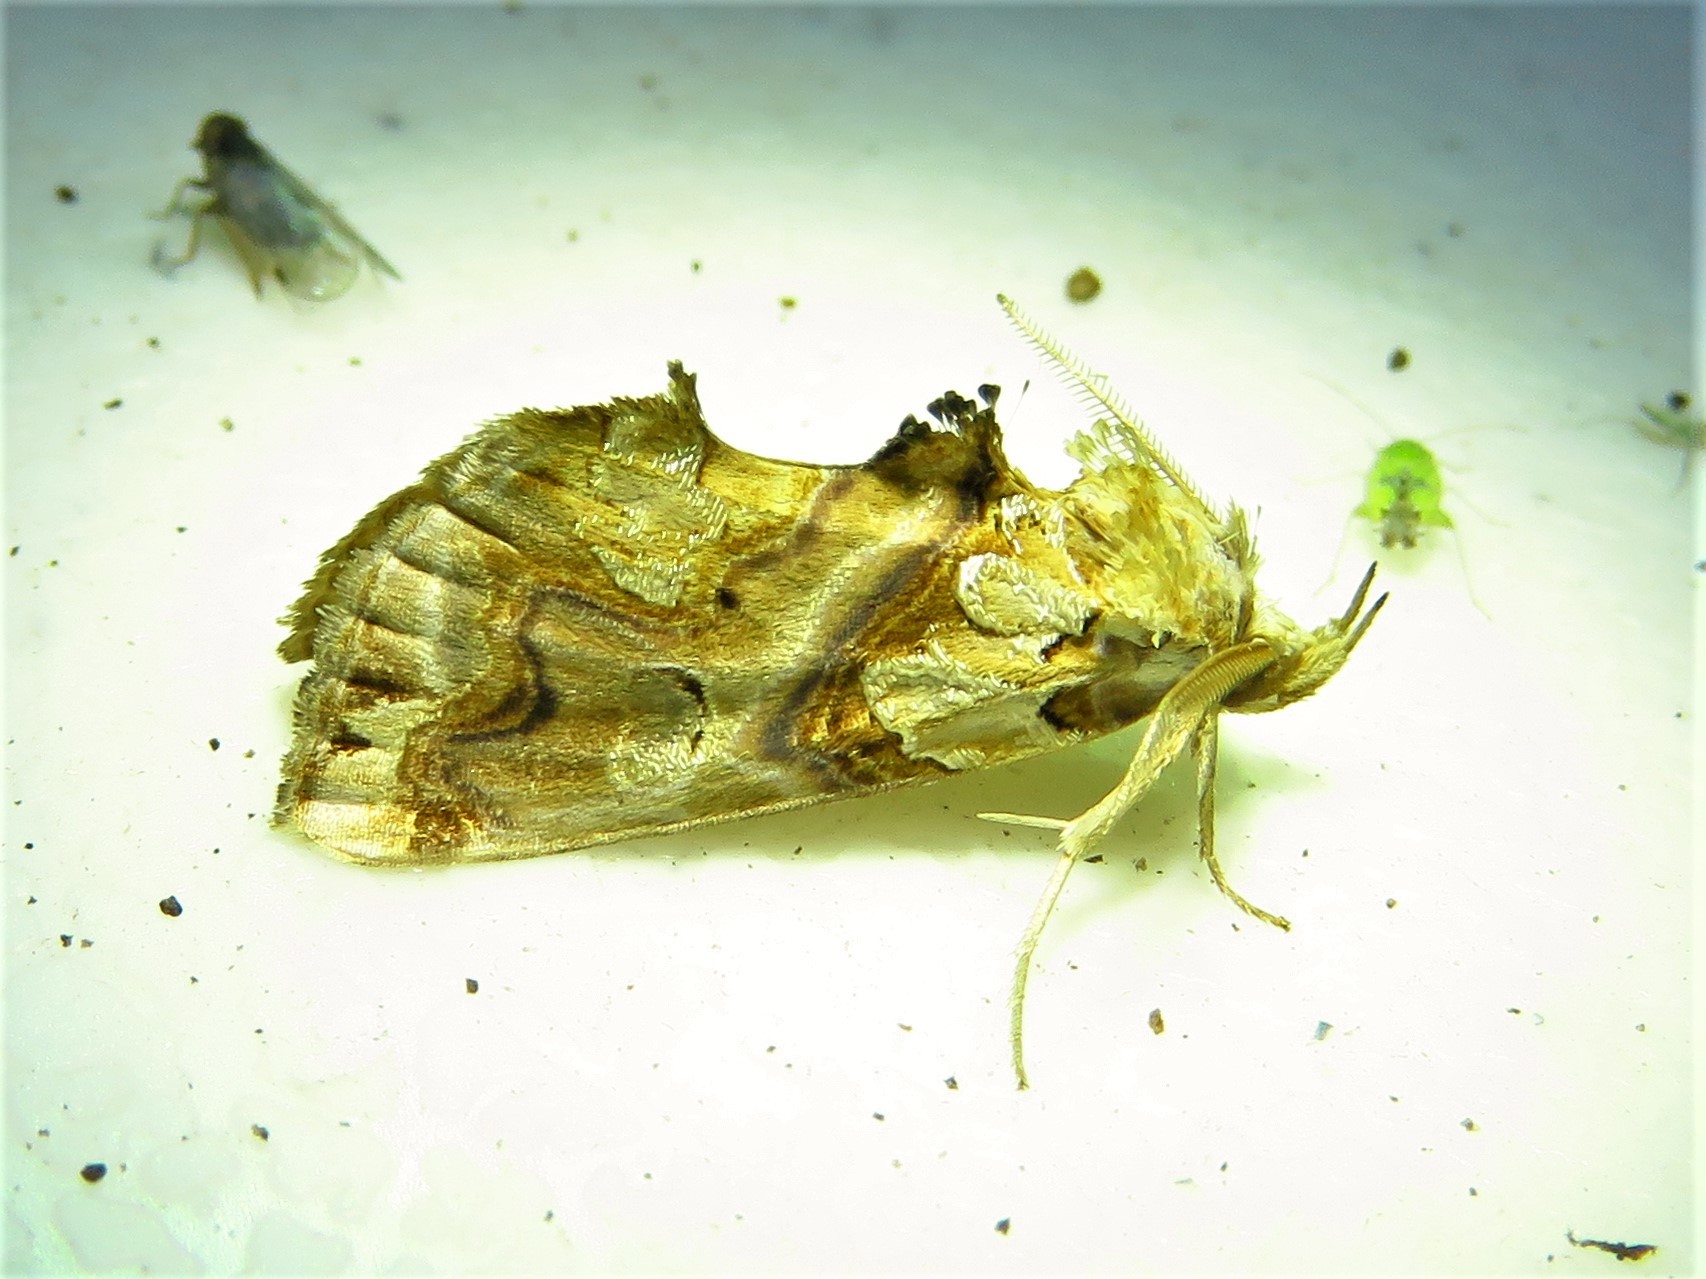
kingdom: Animalia
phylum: Arthropoda
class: Insecta
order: Lepidoptera
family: Erebidae
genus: Plusiodonta
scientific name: Plusiodonta compressipalpis
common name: Moonseed moth
